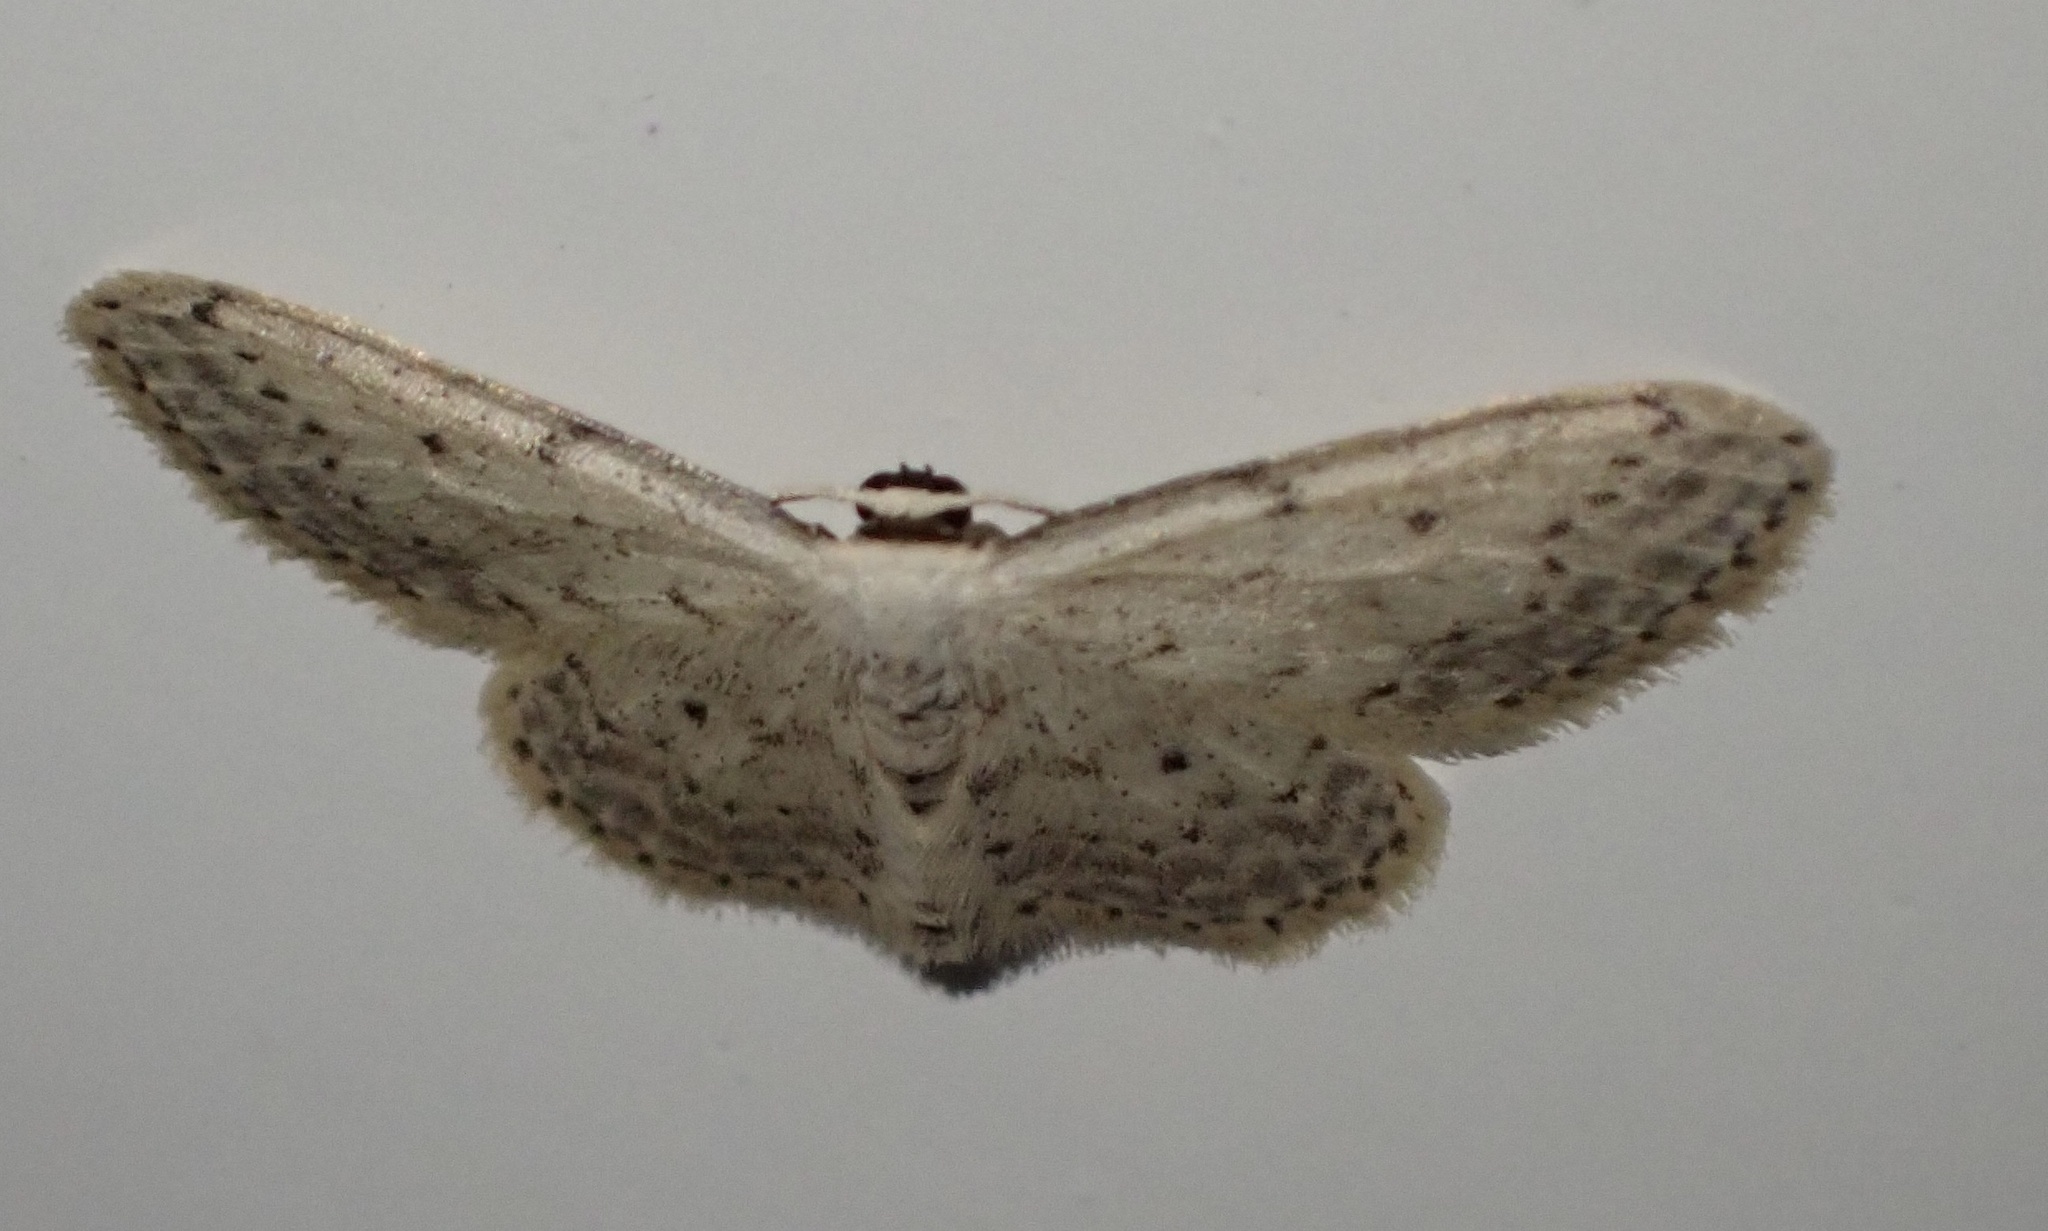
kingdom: Animalia
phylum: Arthropoda
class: Insecta
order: Lepidoptera
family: Geometridae
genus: Idaea
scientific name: Idaea seriata
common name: Small dusty wave
